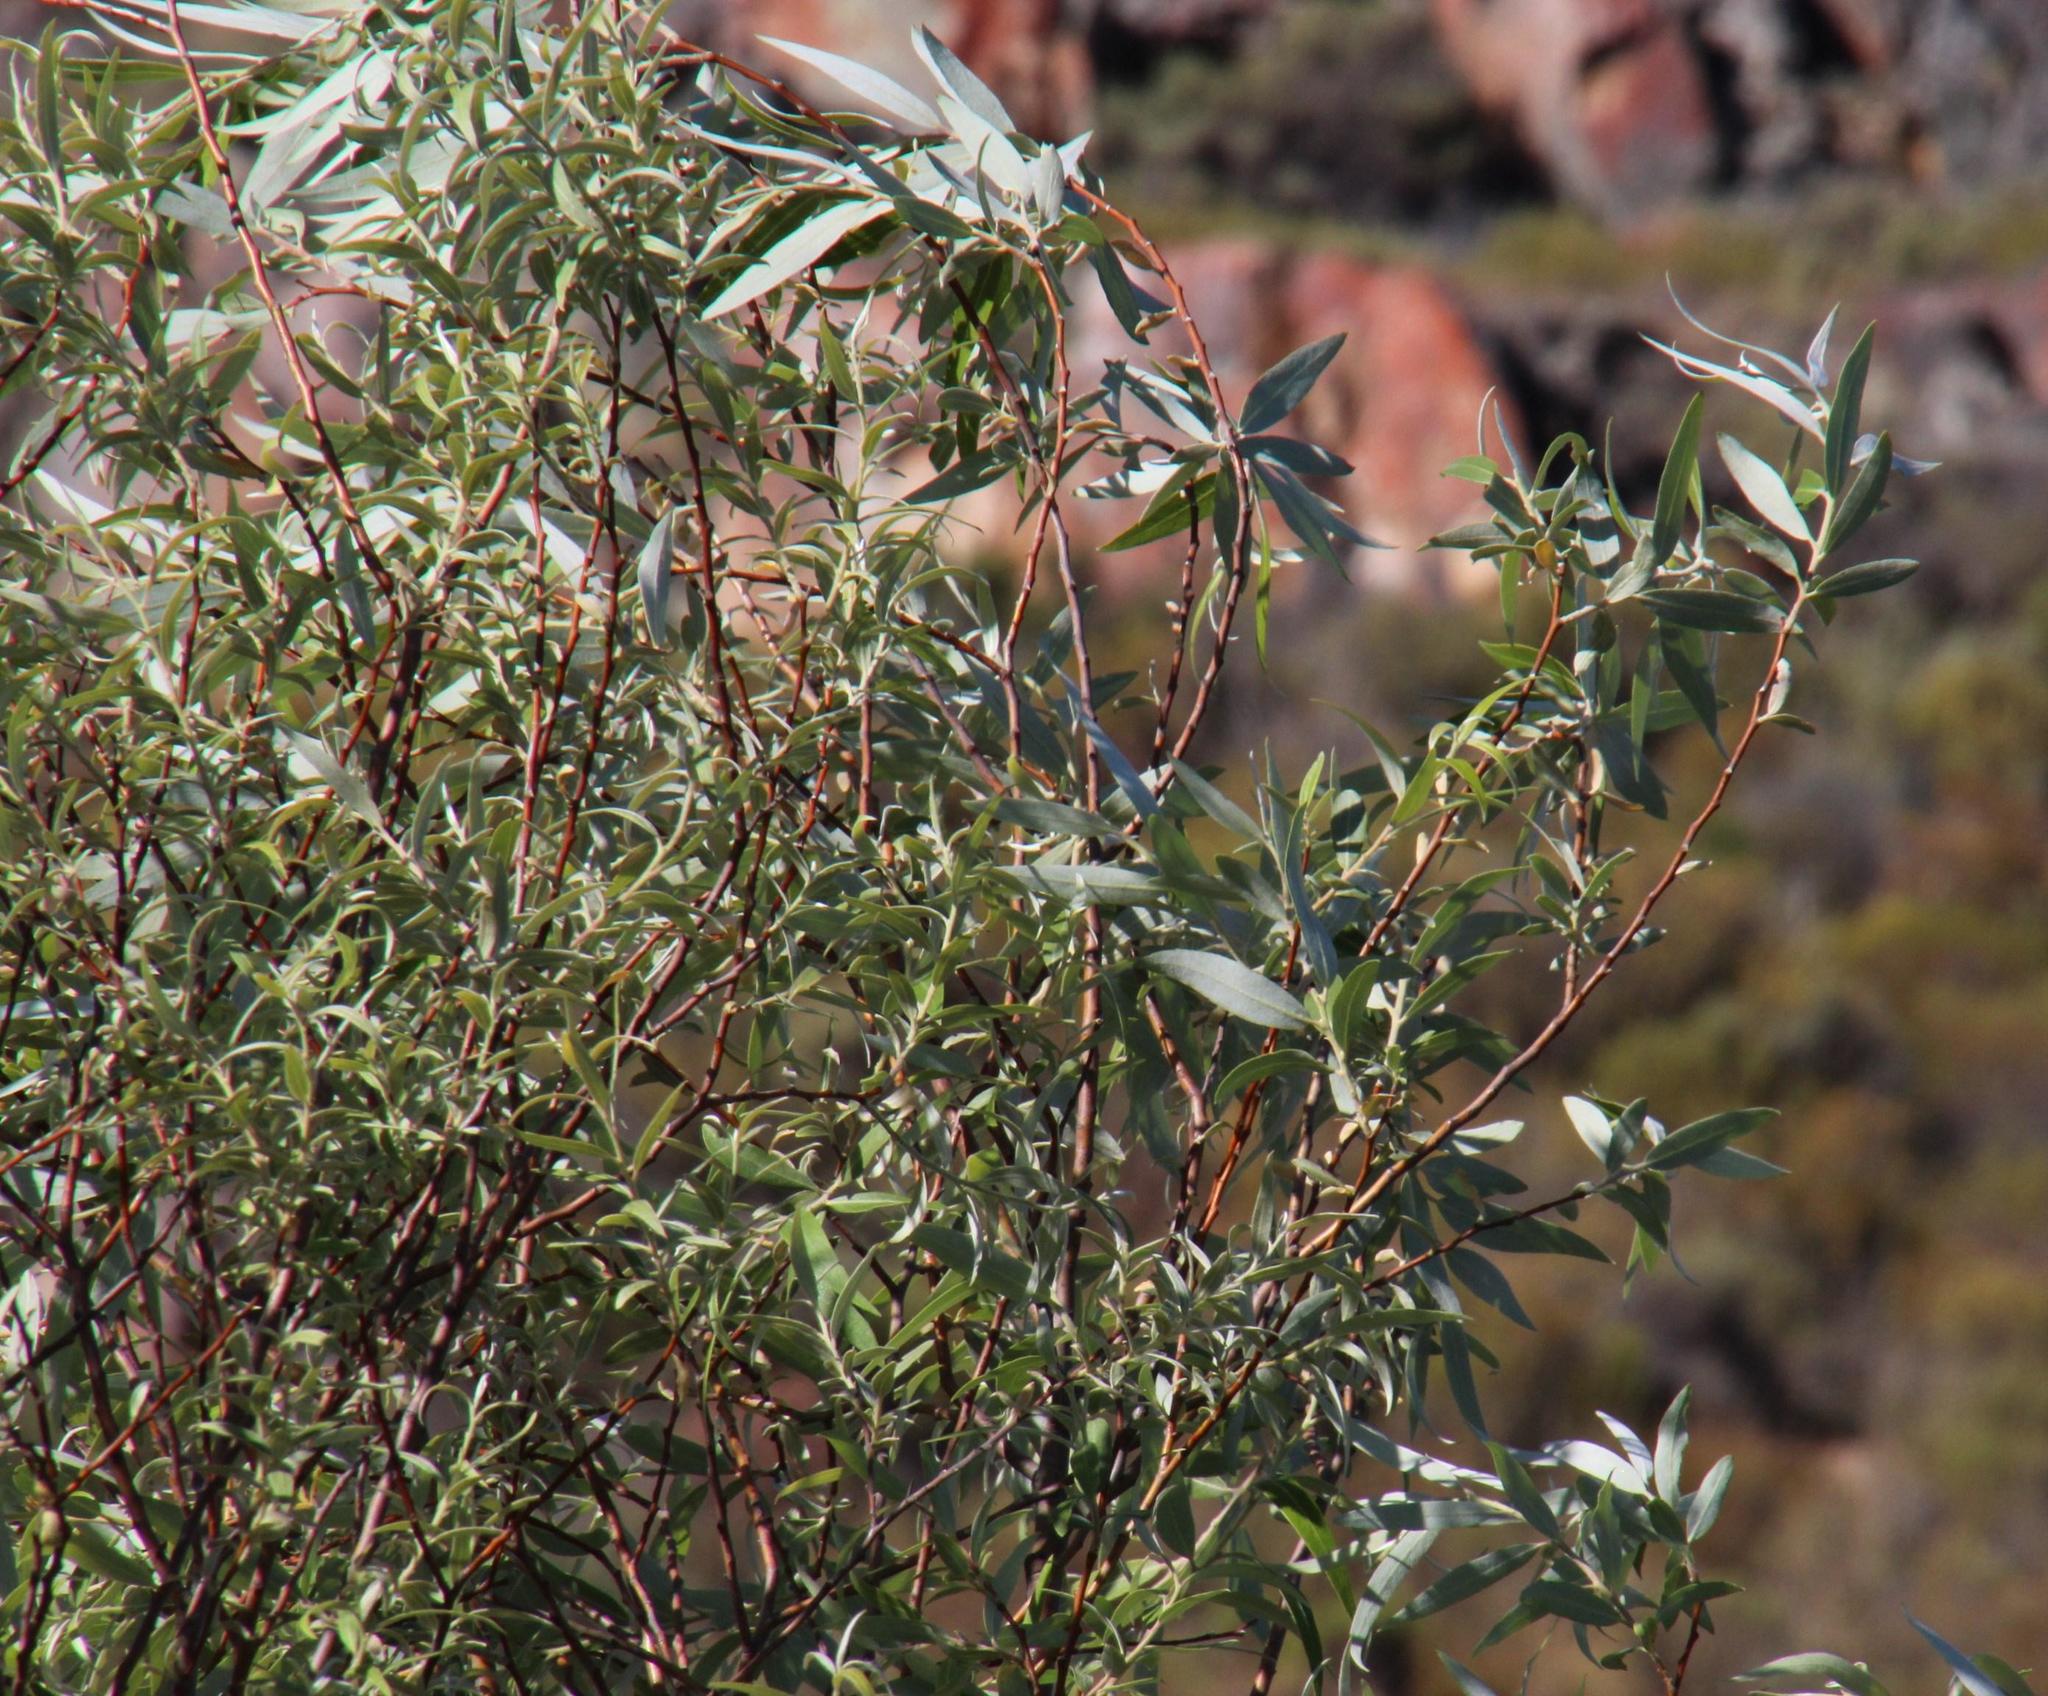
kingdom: Plantae
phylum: Tracheophyta
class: Magnoliopsida
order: Malpighiales
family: Salicaceae
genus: Salix
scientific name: Salix mucronata
